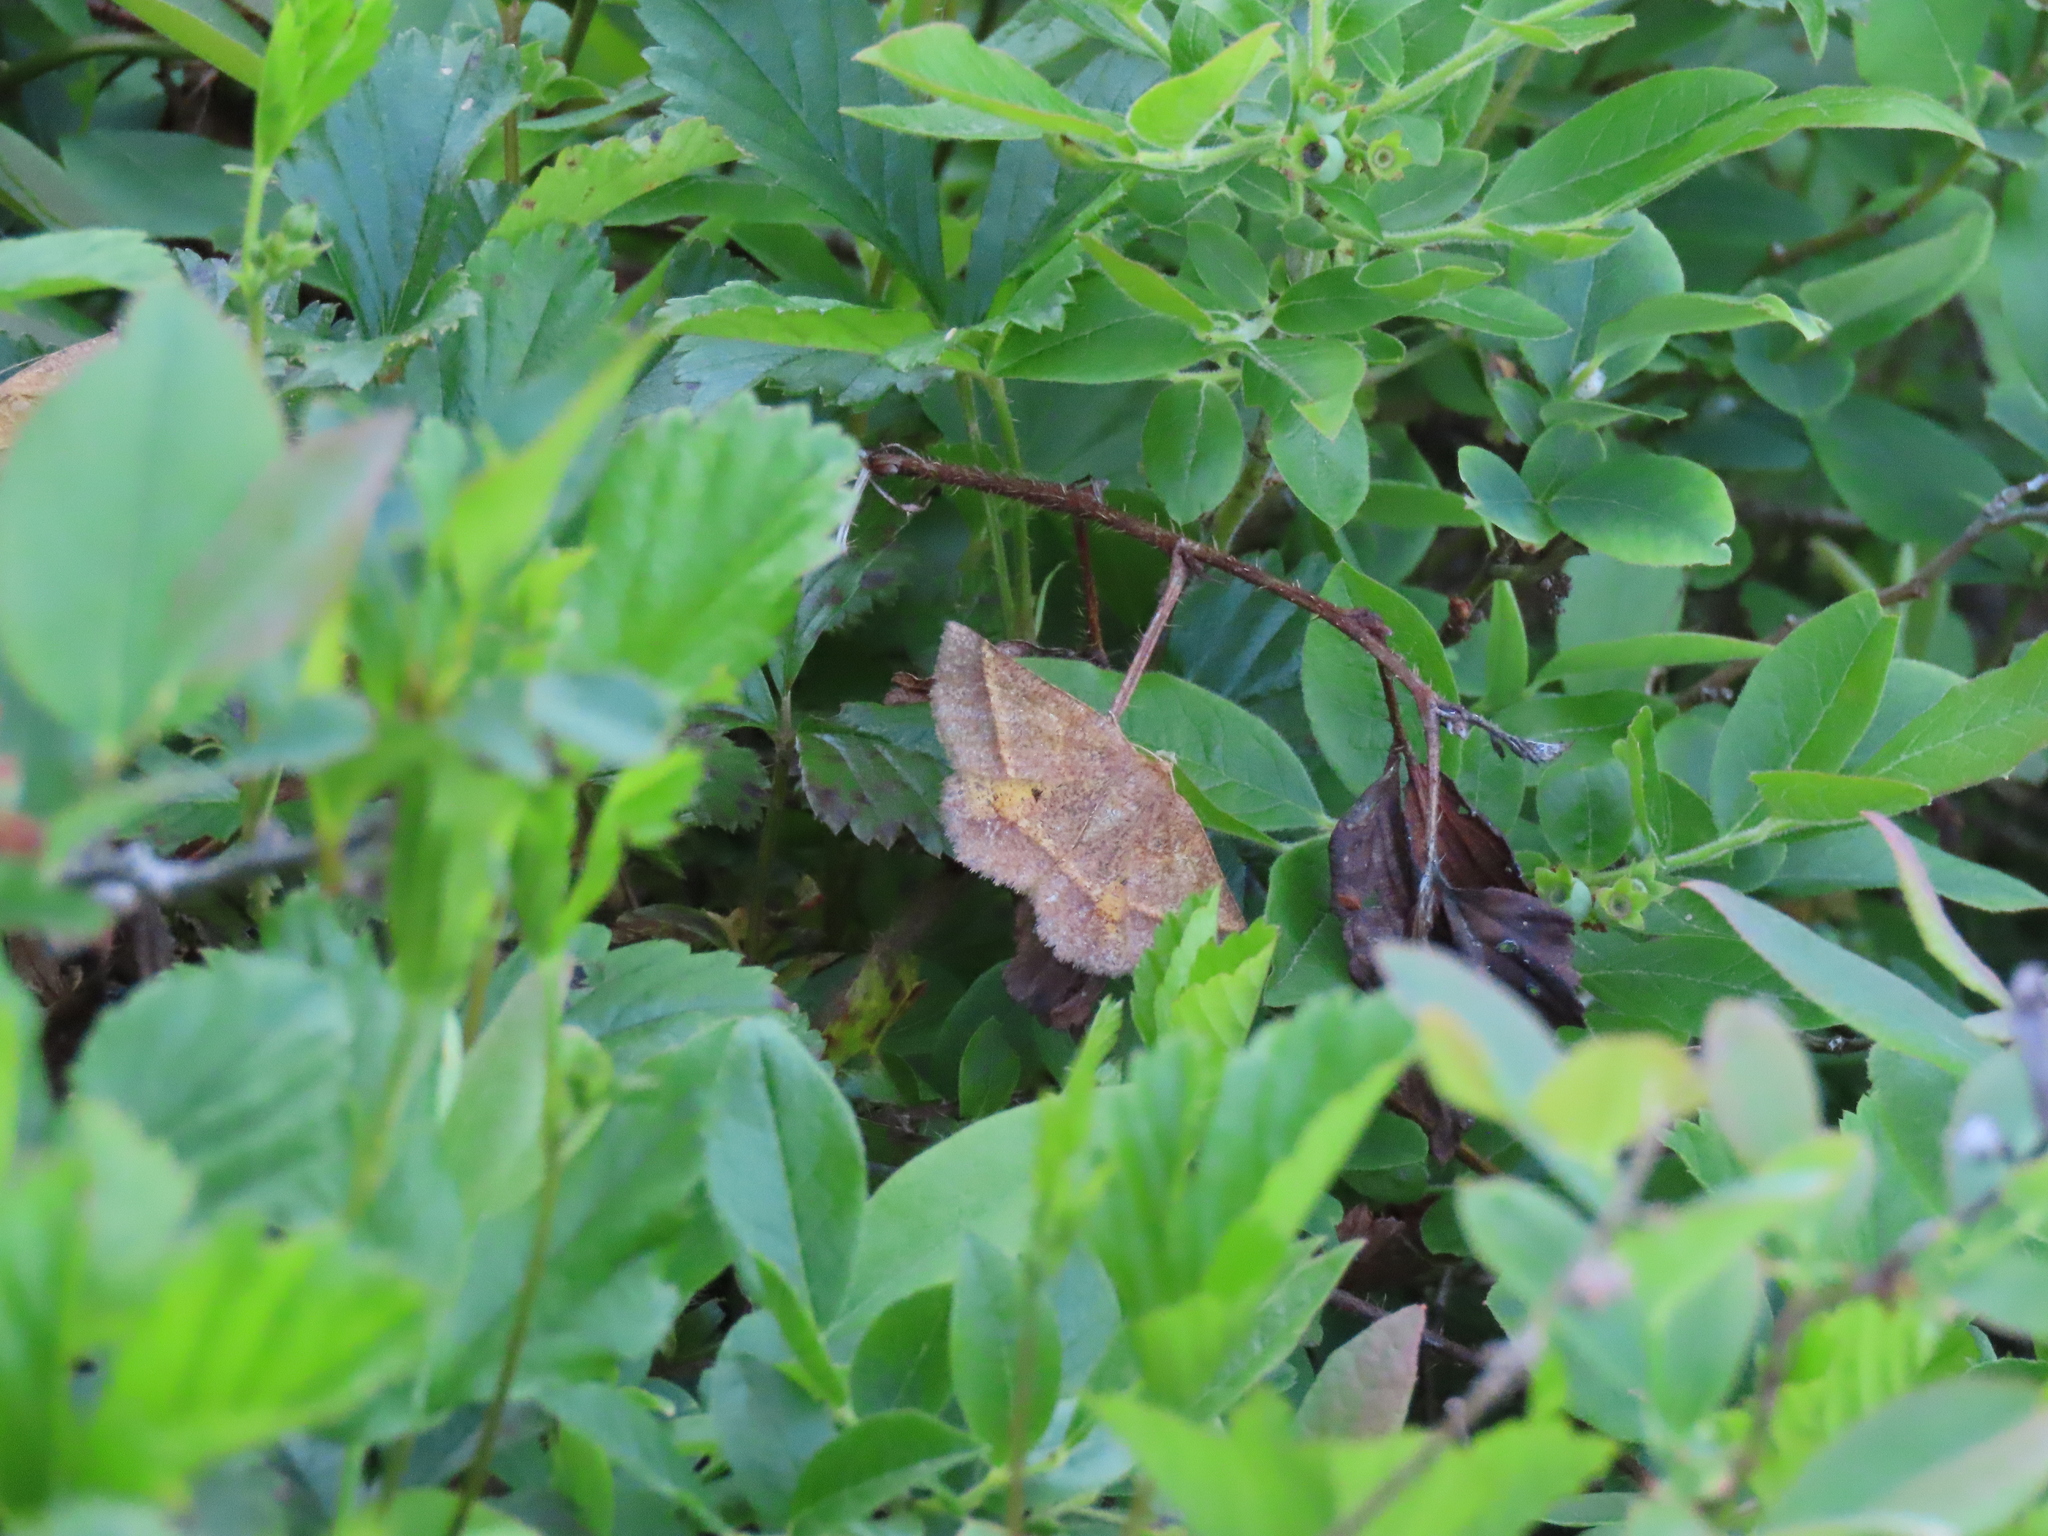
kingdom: Animalia
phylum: Arthropoda
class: Insecta
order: Lepidoptera
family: Geometridae
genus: Metarranthis
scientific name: Metarranthis obfirmaria
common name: Yellow-washed metarranthis
